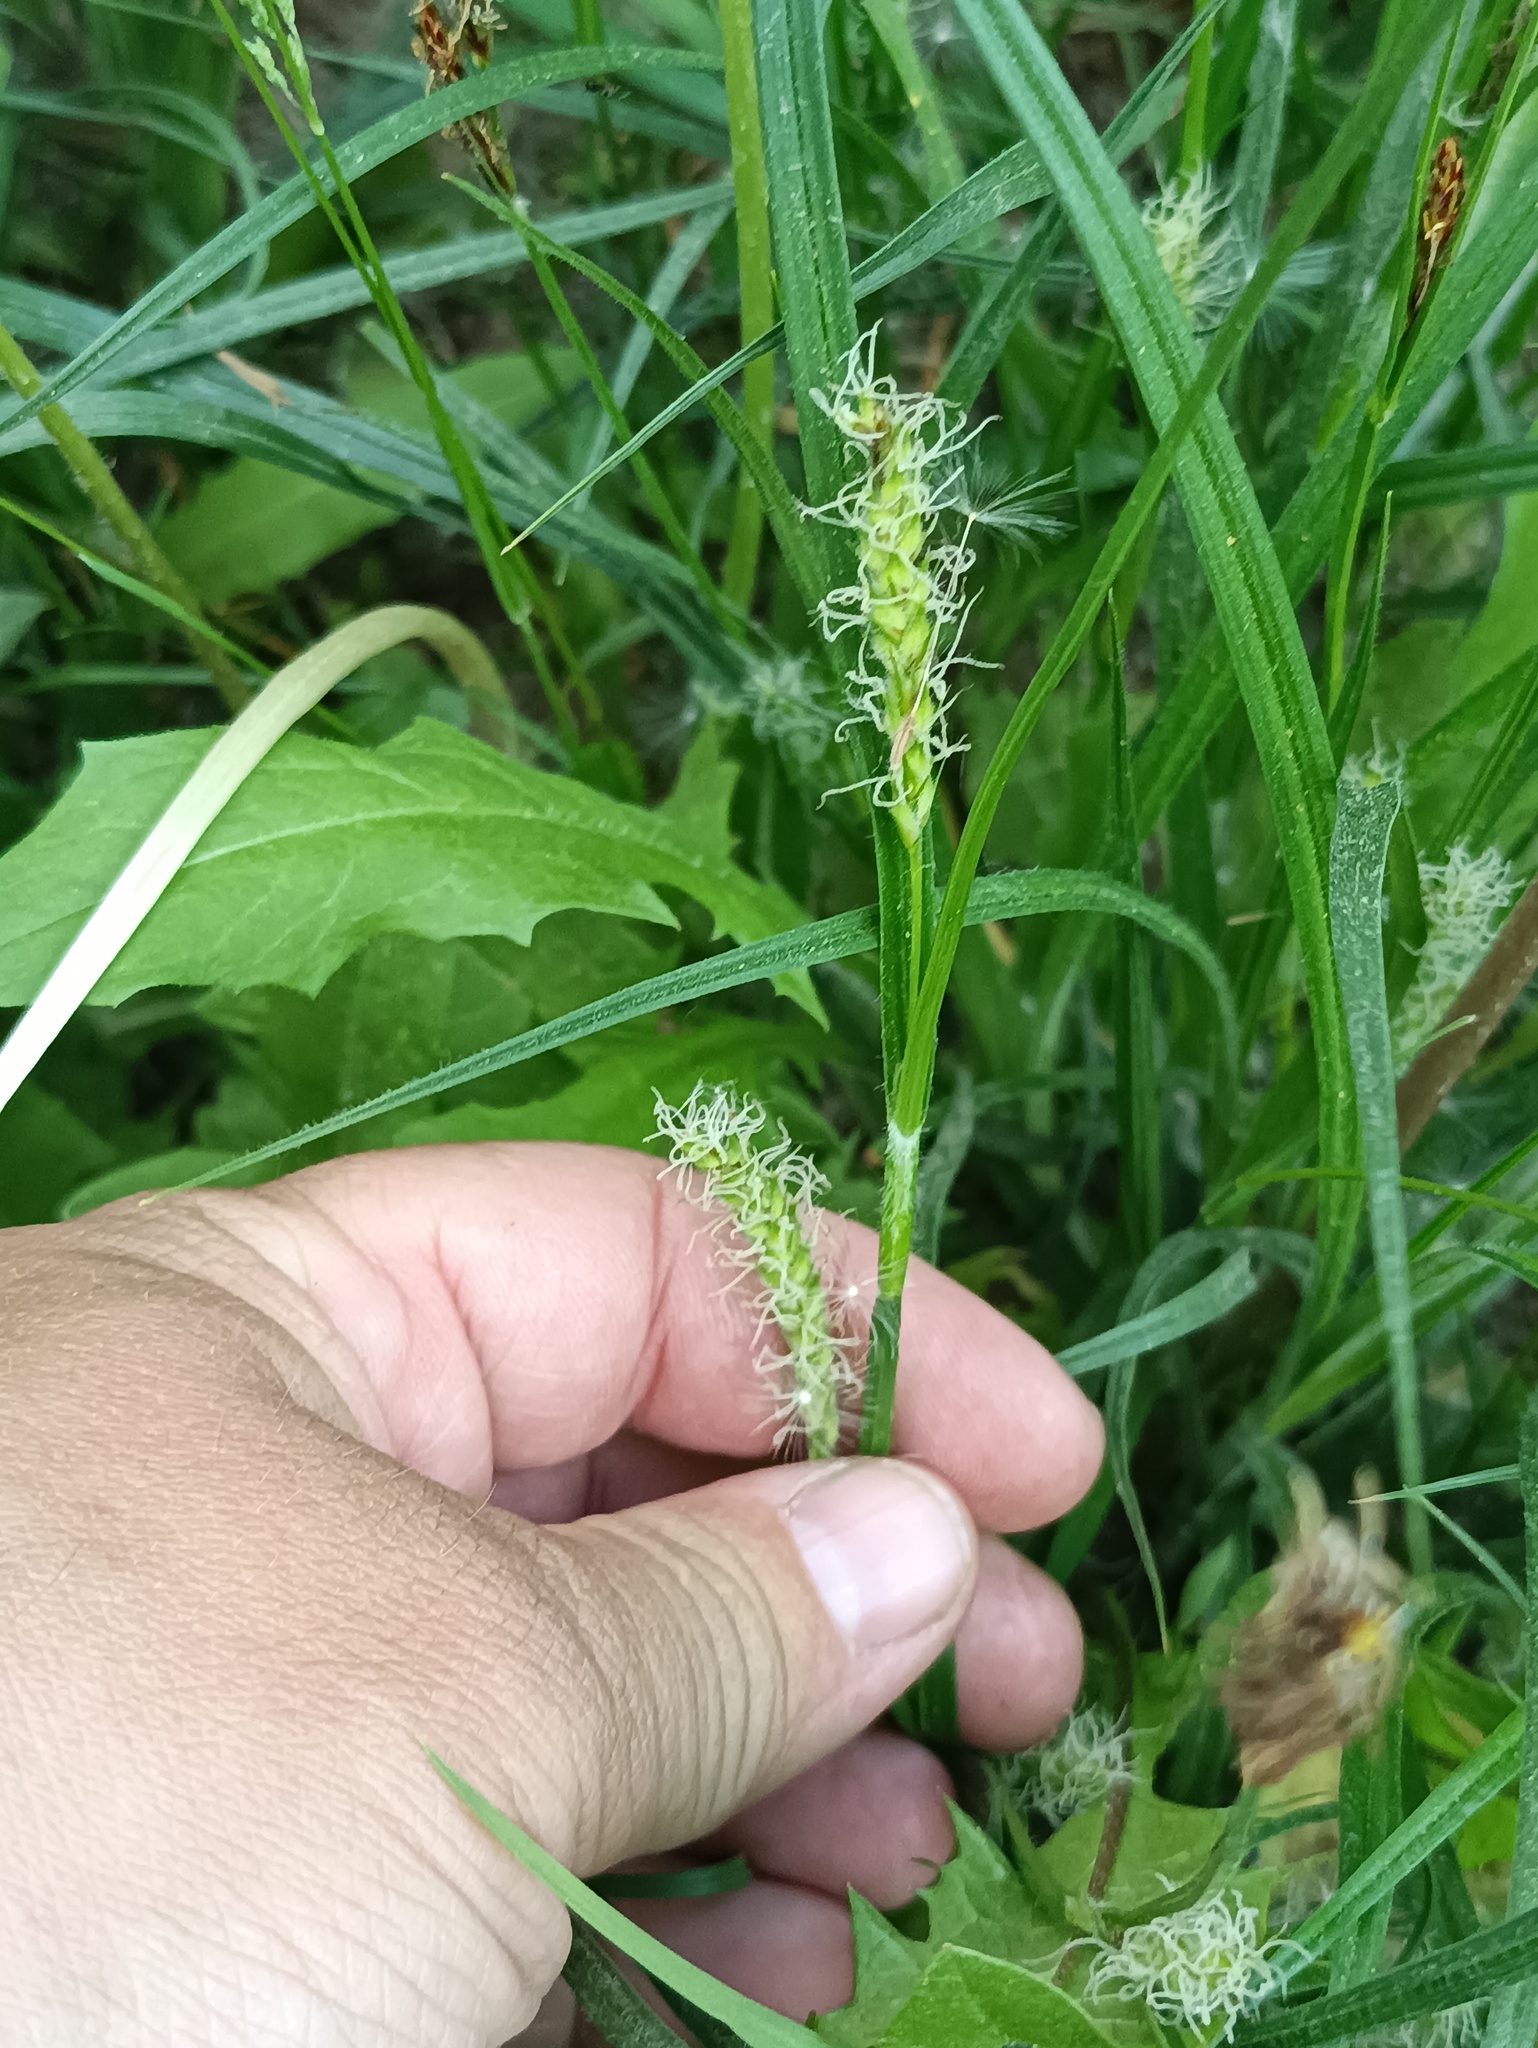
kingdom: Plantae
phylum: Tracheophyta
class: Liliopsida
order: Poales
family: Cyperaceae
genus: Carex
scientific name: Carex hirta
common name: Hairy sedge
